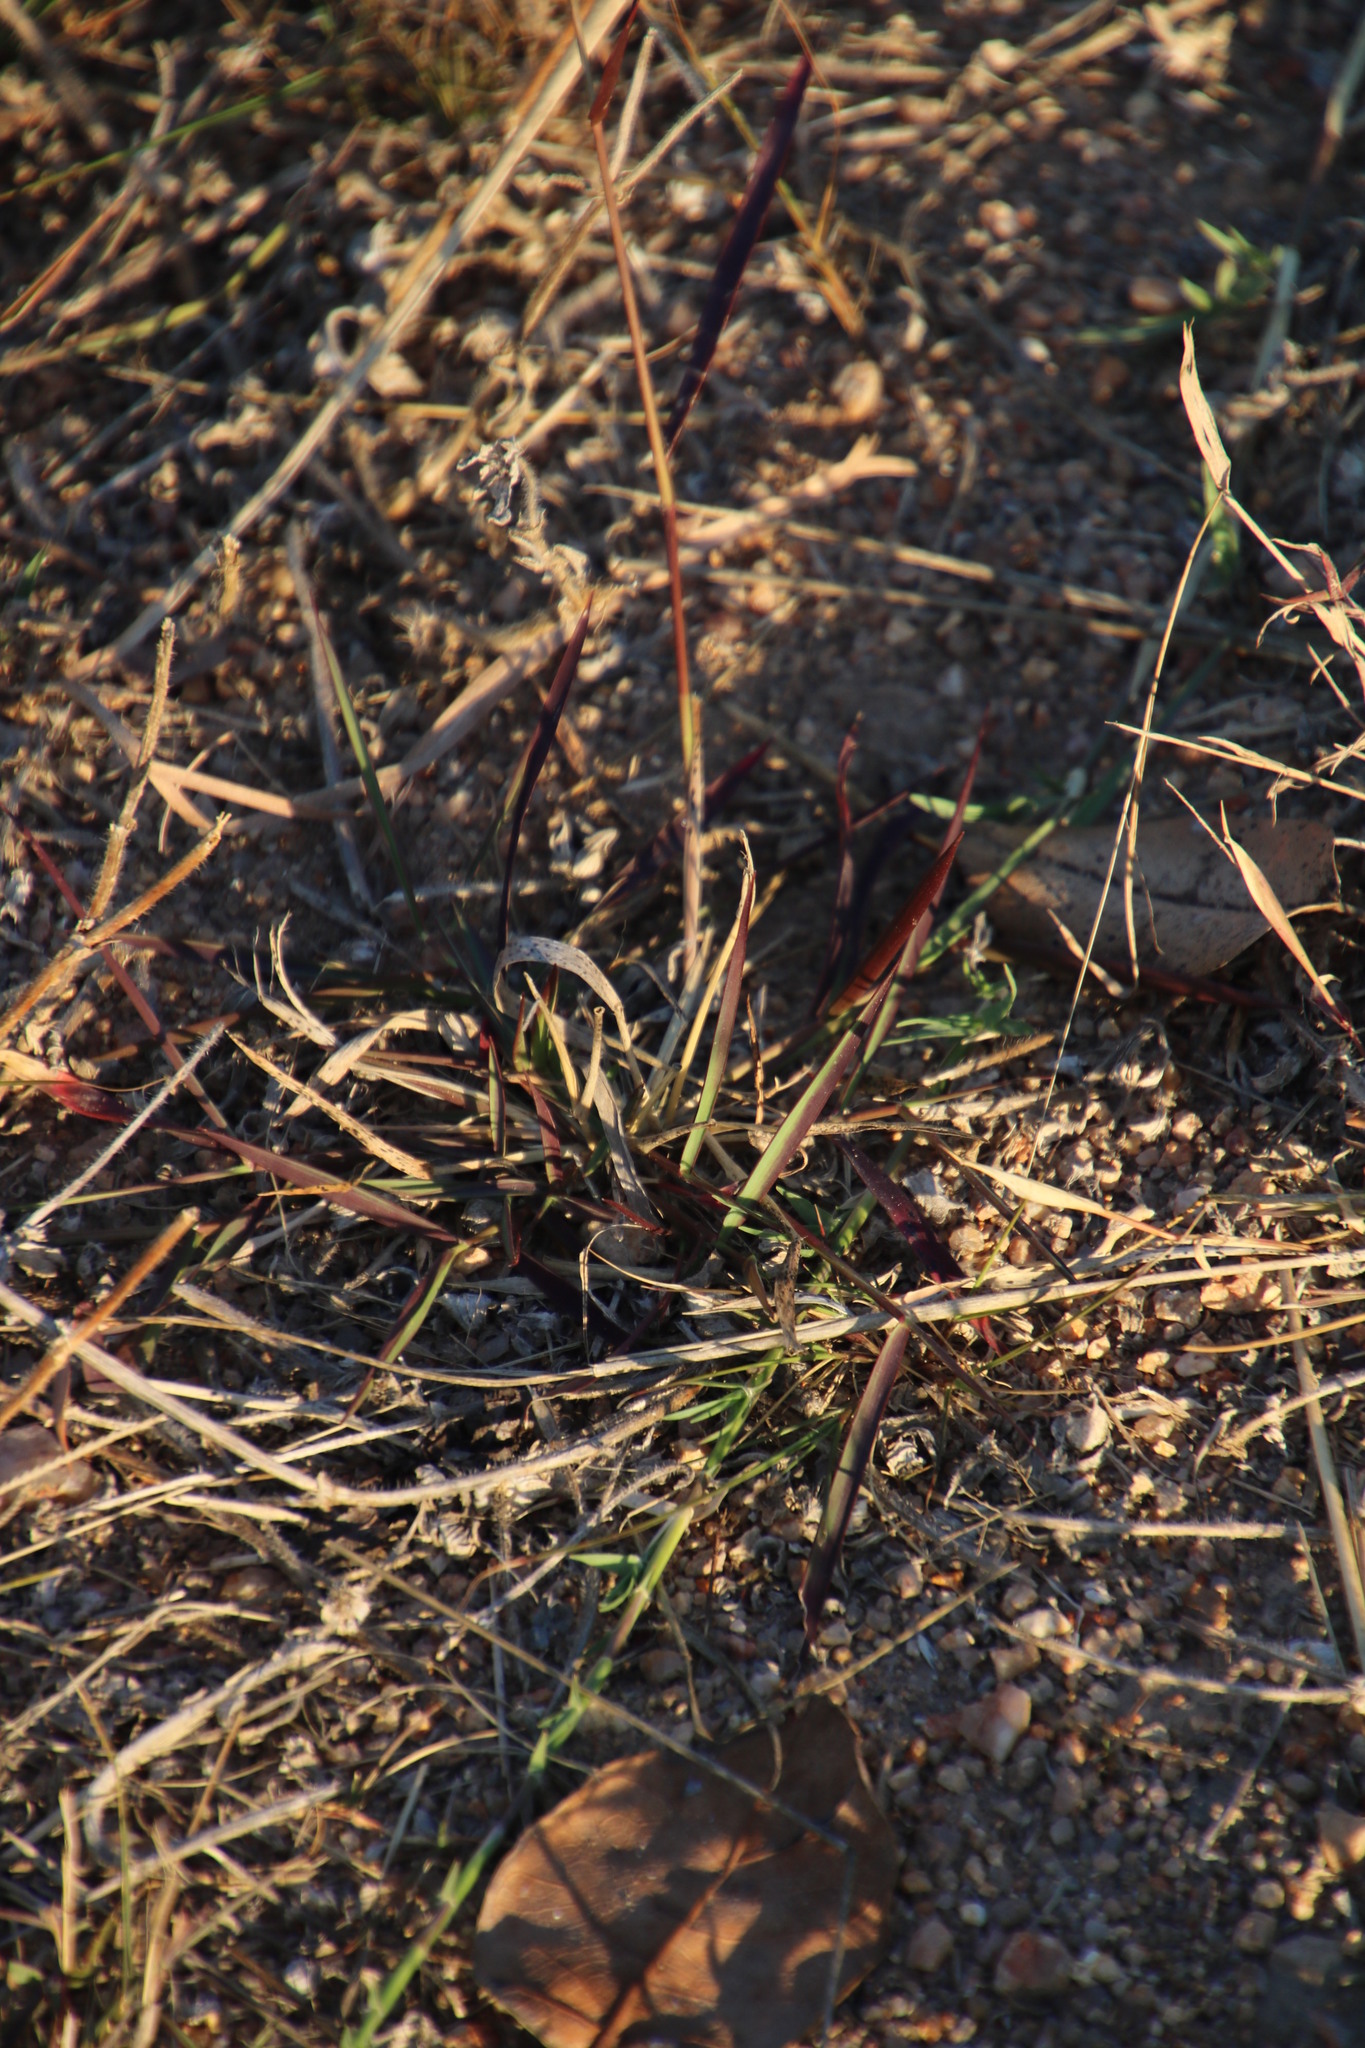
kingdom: Plantae
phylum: Tracheophyta
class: Liliopsida
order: Poales
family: Poaceae
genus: Melinis
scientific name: Melinis repens
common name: Rose natal grass
